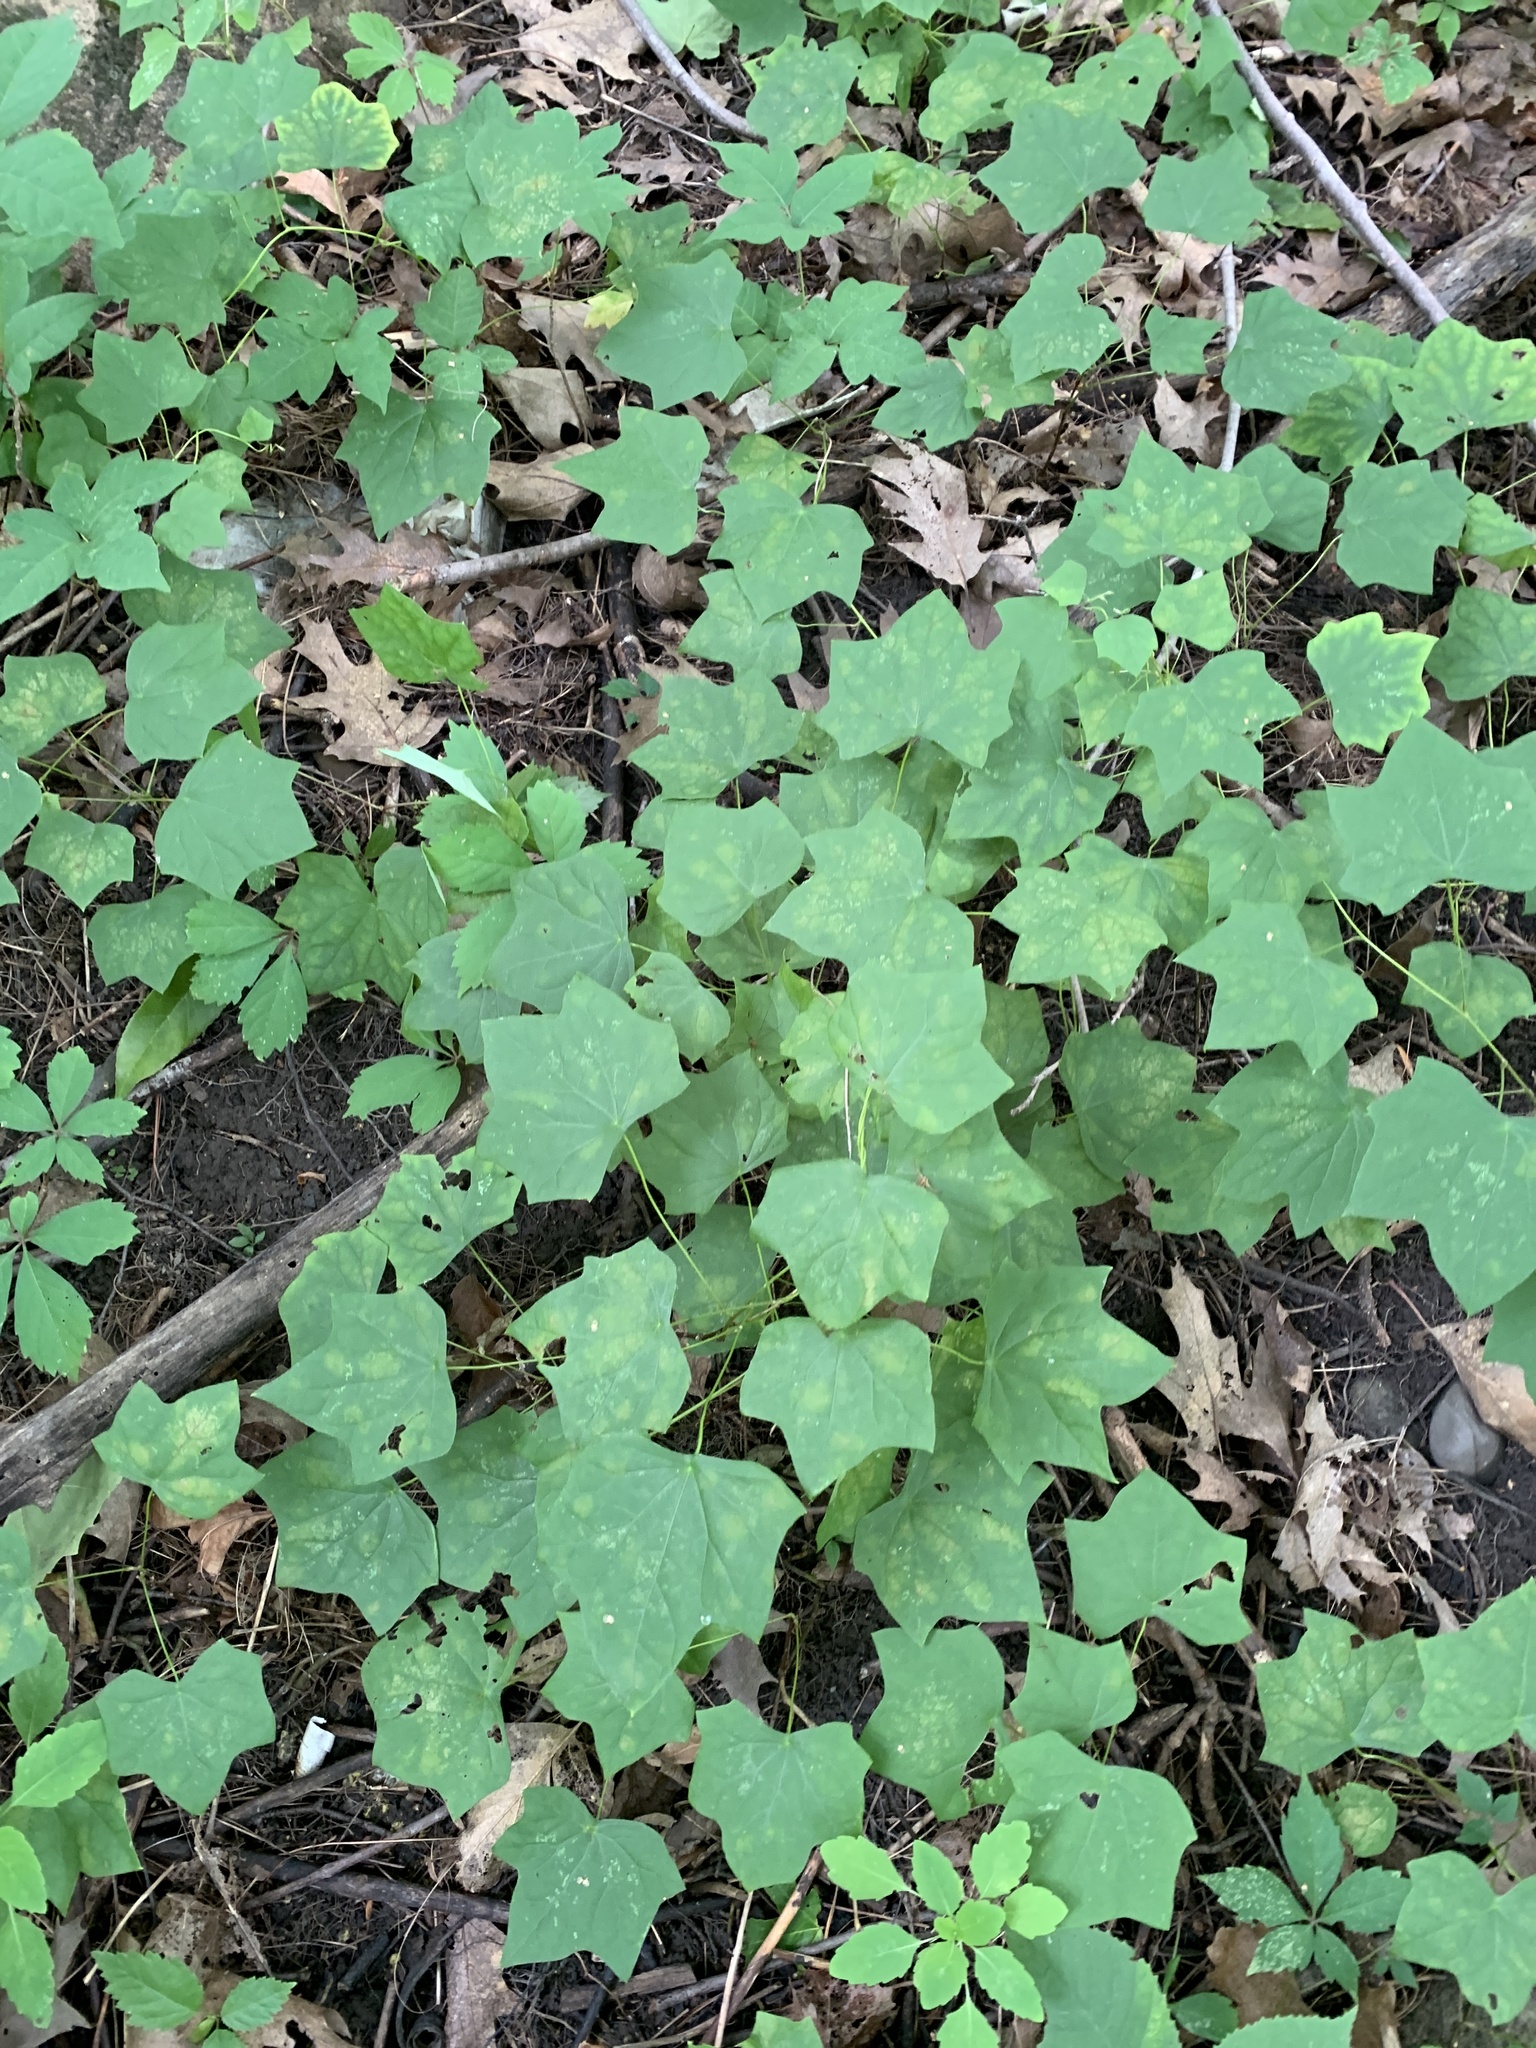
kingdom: Plantae
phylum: Tracheophyta
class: Magnoliopsida
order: Ranunculales
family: Menispermaceae
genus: Menispermum
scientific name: Menispermum canadense
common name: Moonseed
